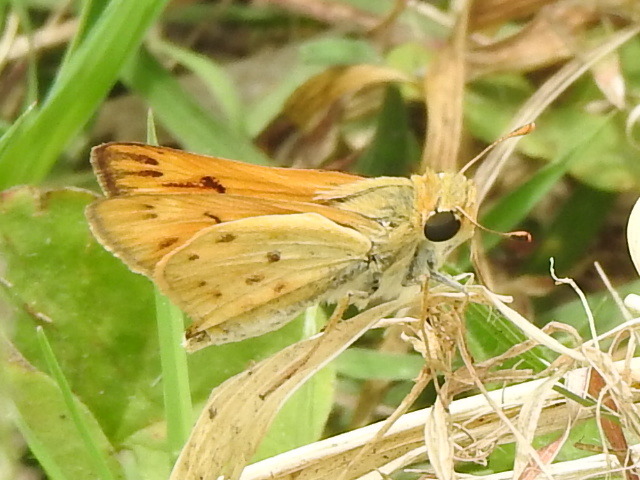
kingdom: Animalia
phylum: Arthropoda
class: Insecta
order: Lepidoptera
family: Hesperiidae
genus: Hylephila
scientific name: Hylephila phyleus
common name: Fiery skipper
